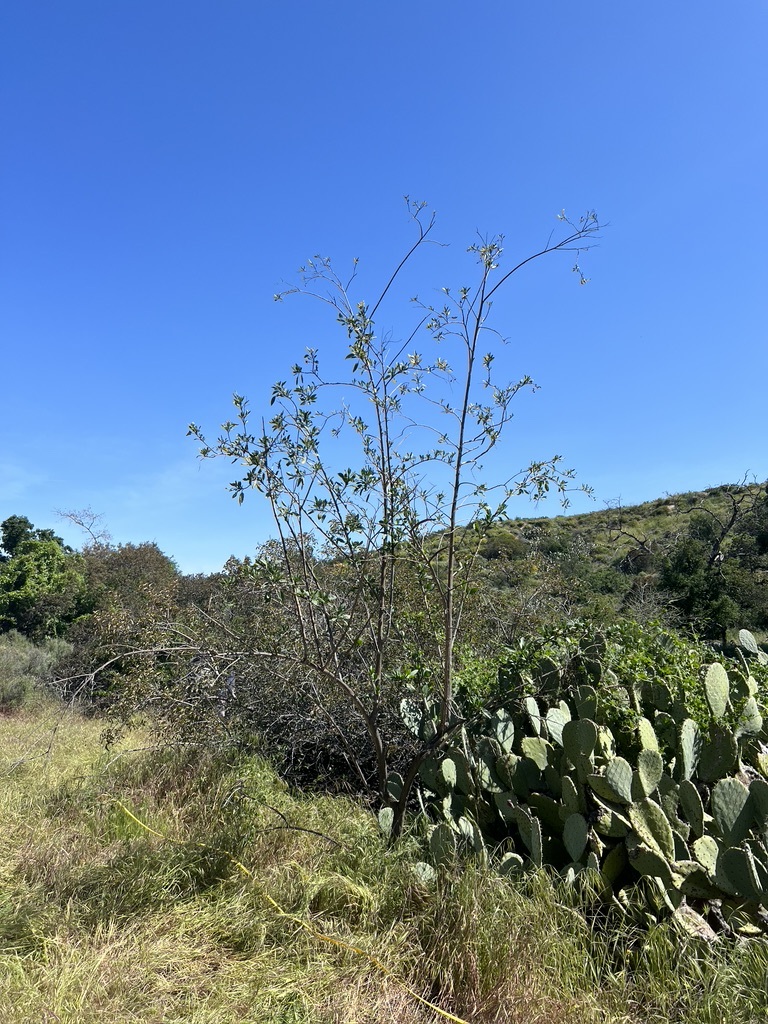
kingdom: Plantae
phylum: Tracheophyta
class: Magnoliopsida
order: Solanales
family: Solanaceae
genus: Nicotiana
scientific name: Nicotiana glauca
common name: Tree tobacco
